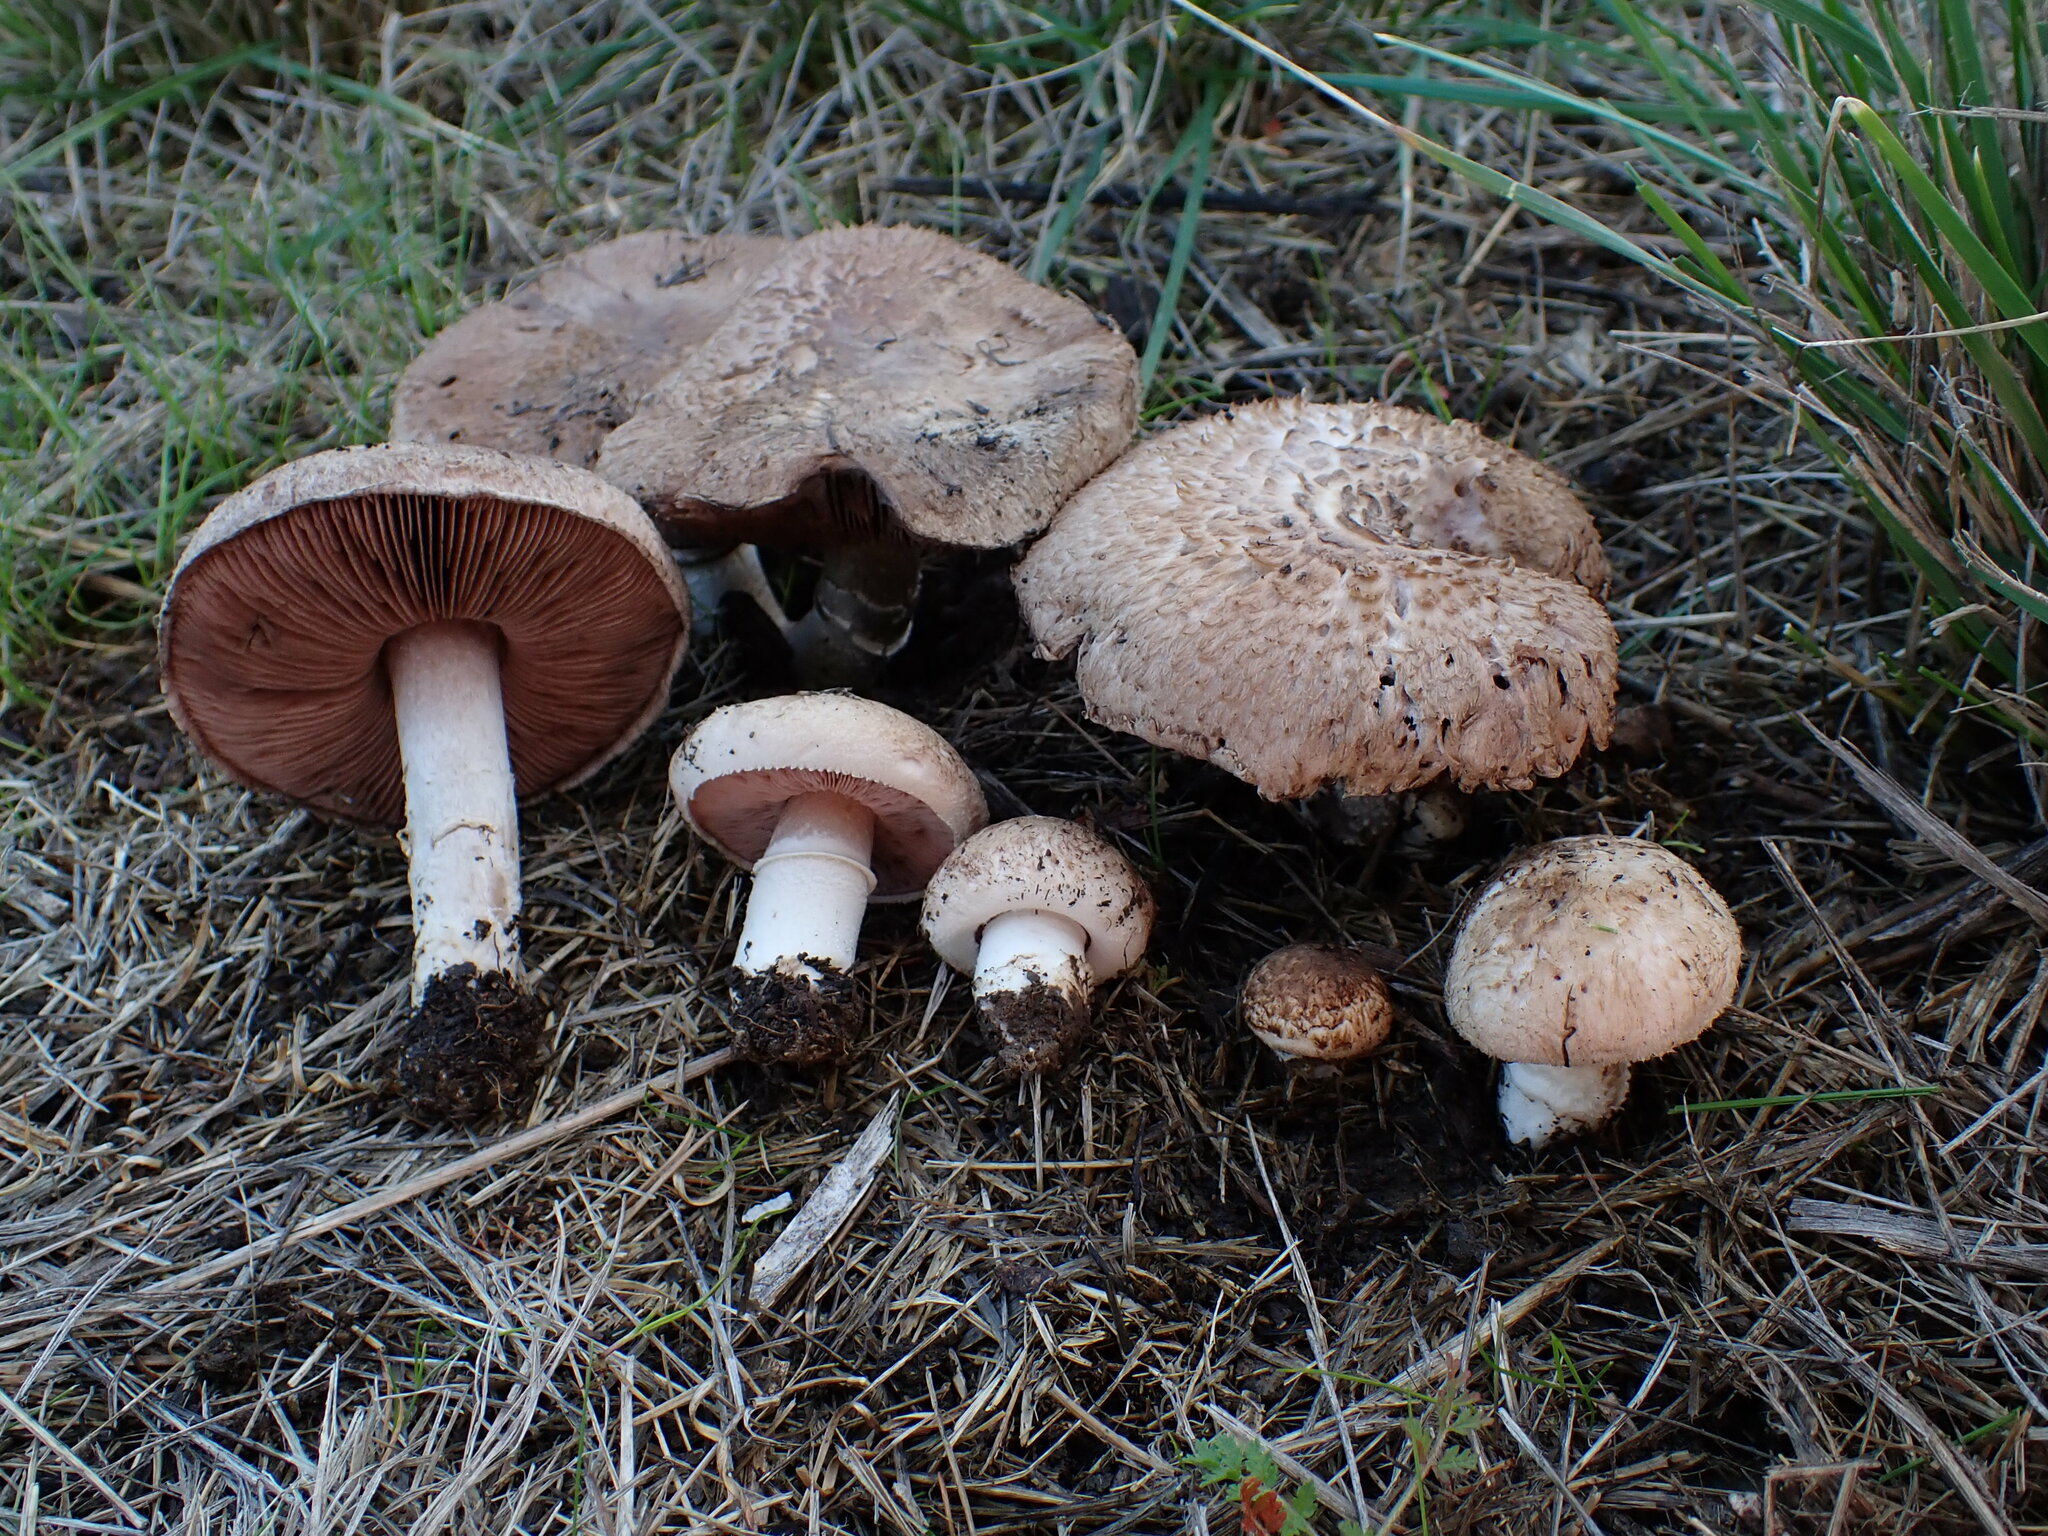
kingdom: Fungi
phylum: Basidiomycota
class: Agaricomycetes
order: Agaricales
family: Agaricaceae
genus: Agaricus
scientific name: Agaricus incultorum
